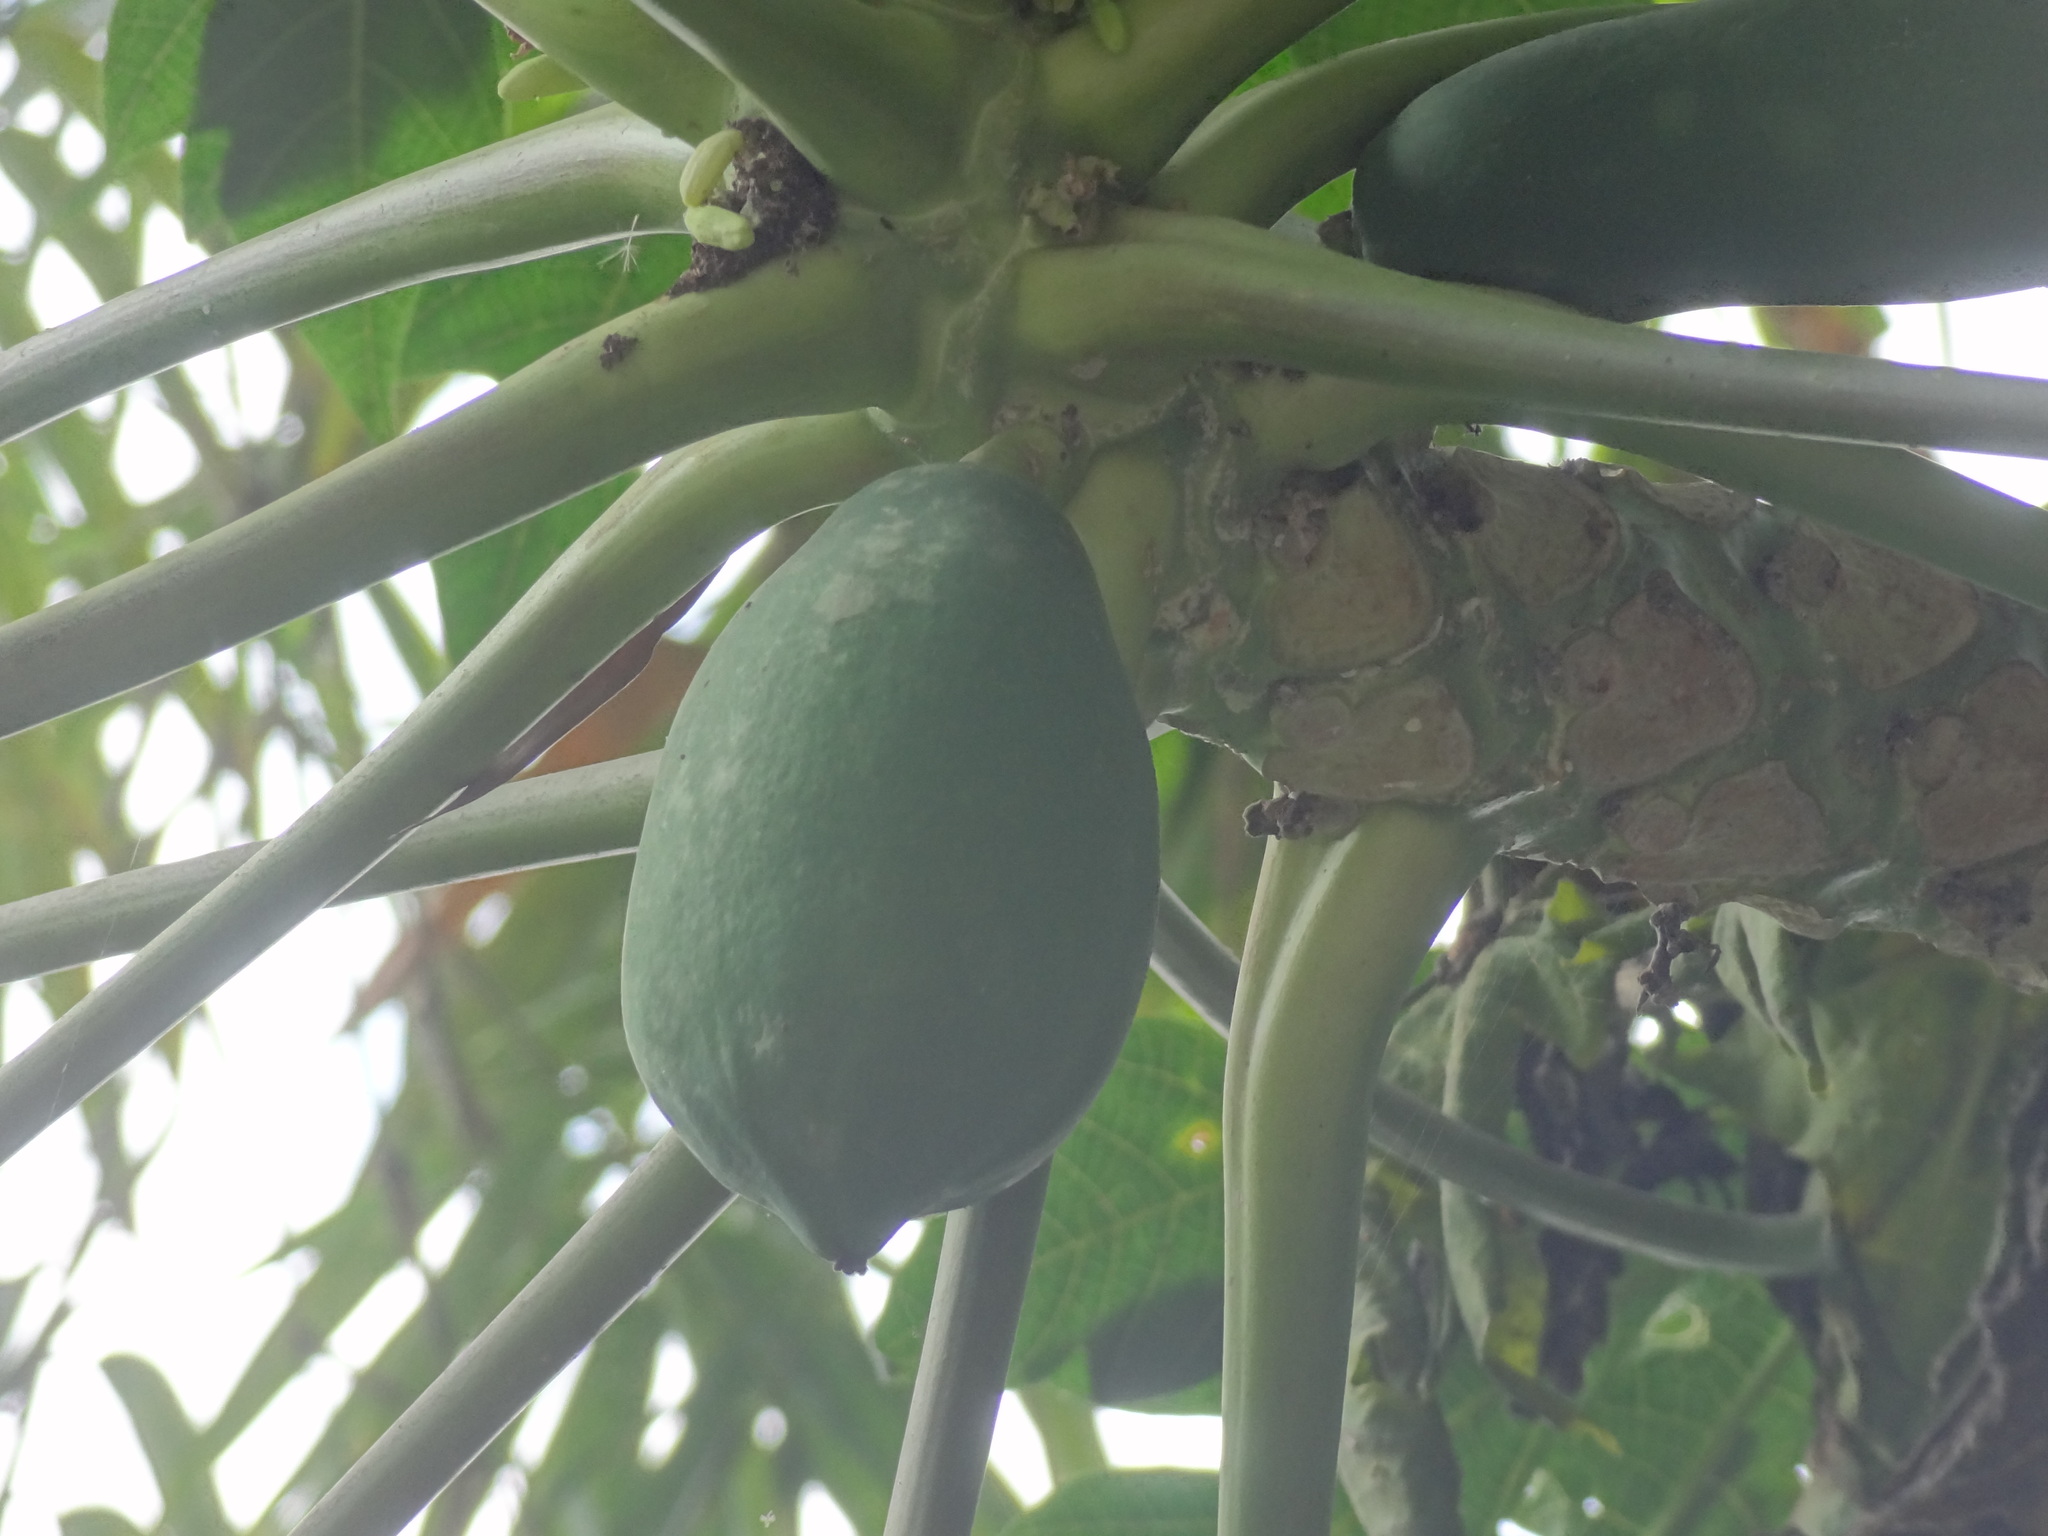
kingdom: Plantae
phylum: Tracheophyta
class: Magnoliopsida
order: Brassicales
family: Caricaceae
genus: Carica
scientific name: Carica papaya
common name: Papaya
